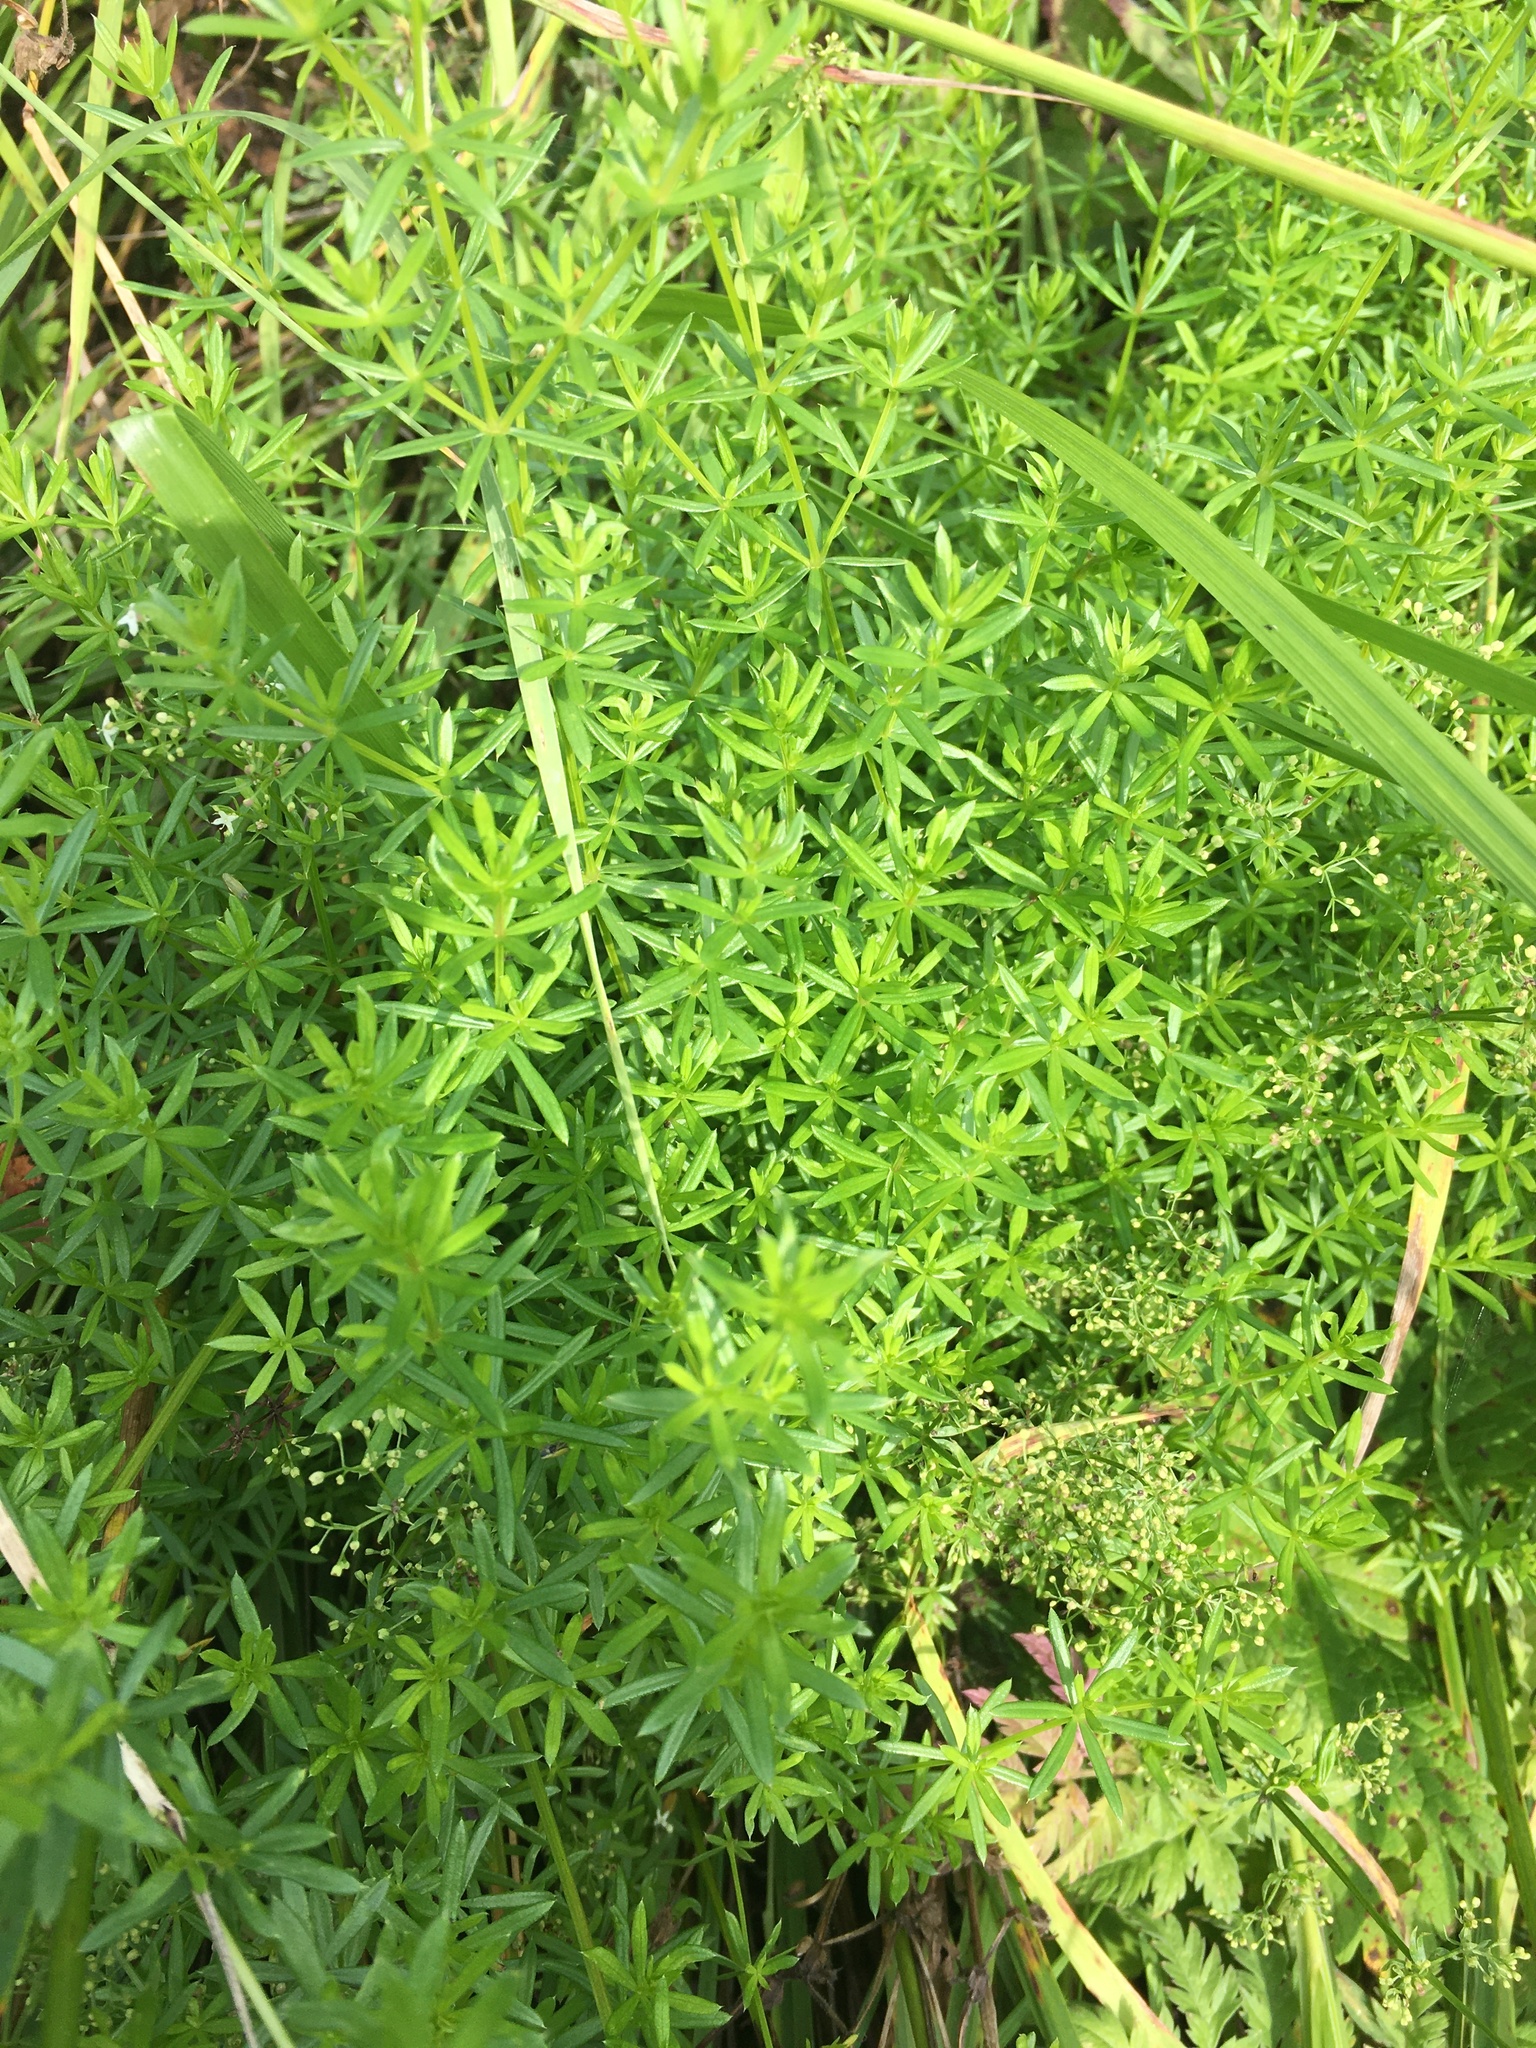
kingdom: Plantae
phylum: Tracheophyta
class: Magnoliopsida
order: Gentianales
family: Rubiaceae
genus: Galium
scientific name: Galium mollugo
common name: Hedge bedstraw
